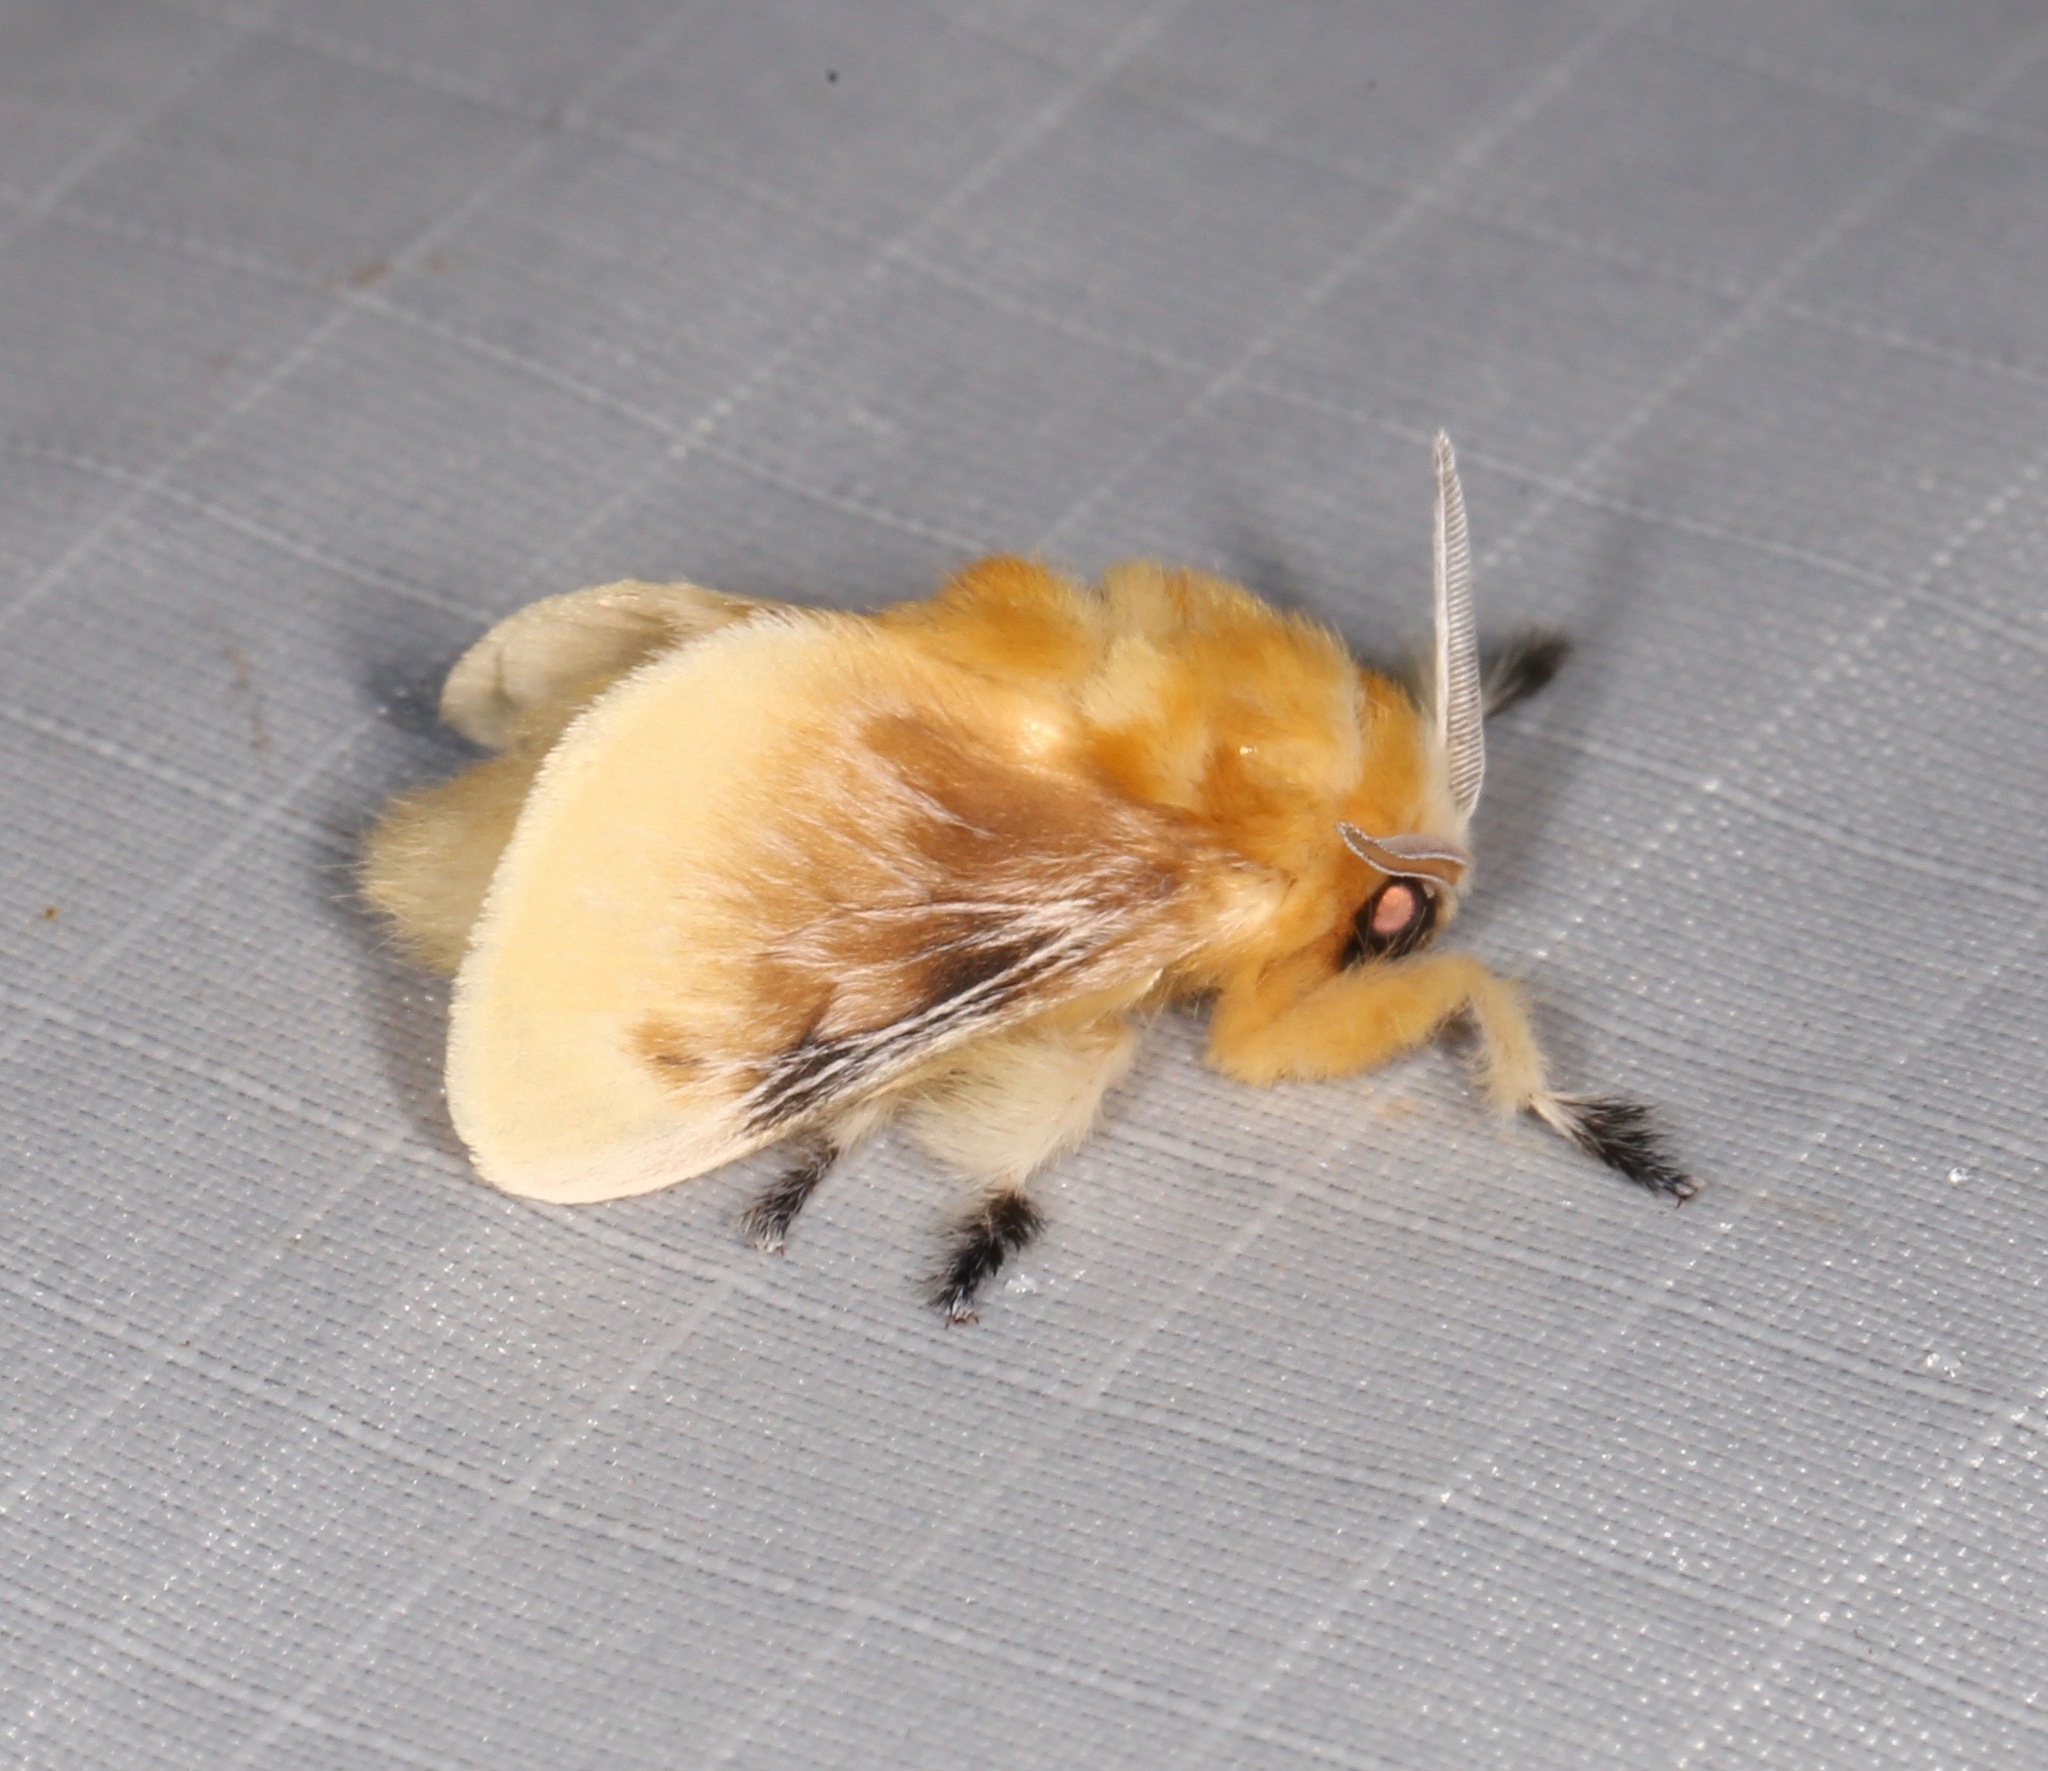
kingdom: Animalia
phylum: Arthropoda
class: Insecta
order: Lepidoptera
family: Megalopygidae
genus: Megalopyge
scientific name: Megalopyge opercularis
